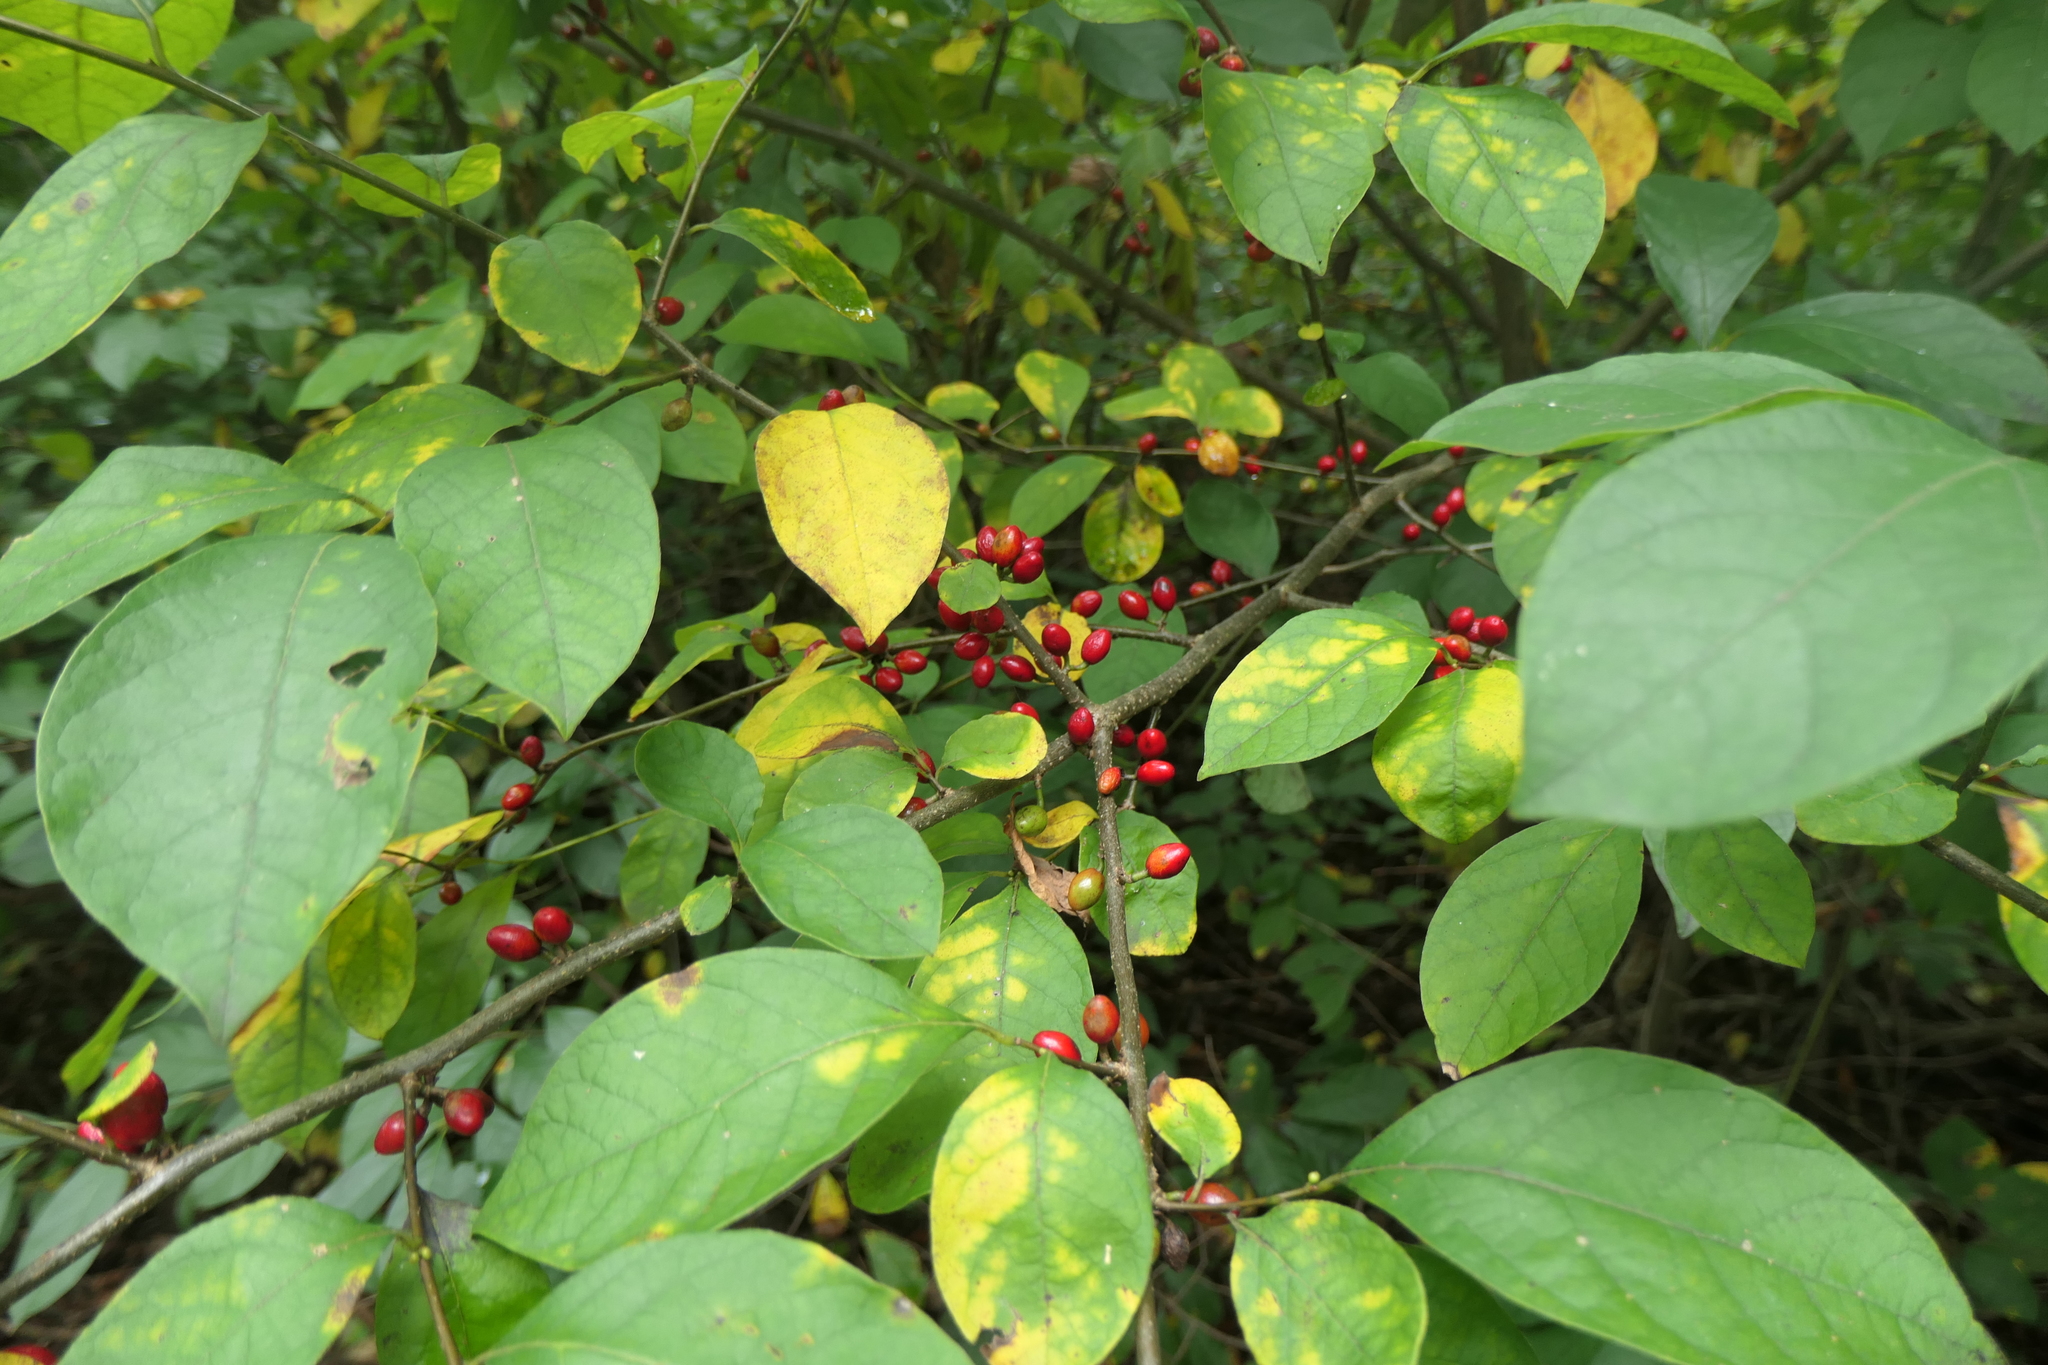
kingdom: Plantae
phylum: Tracheophyta
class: Magnoliopsida
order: Laurales
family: Lauraceae
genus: Lindera
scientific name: Lindera benzoin
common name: Spicebush
